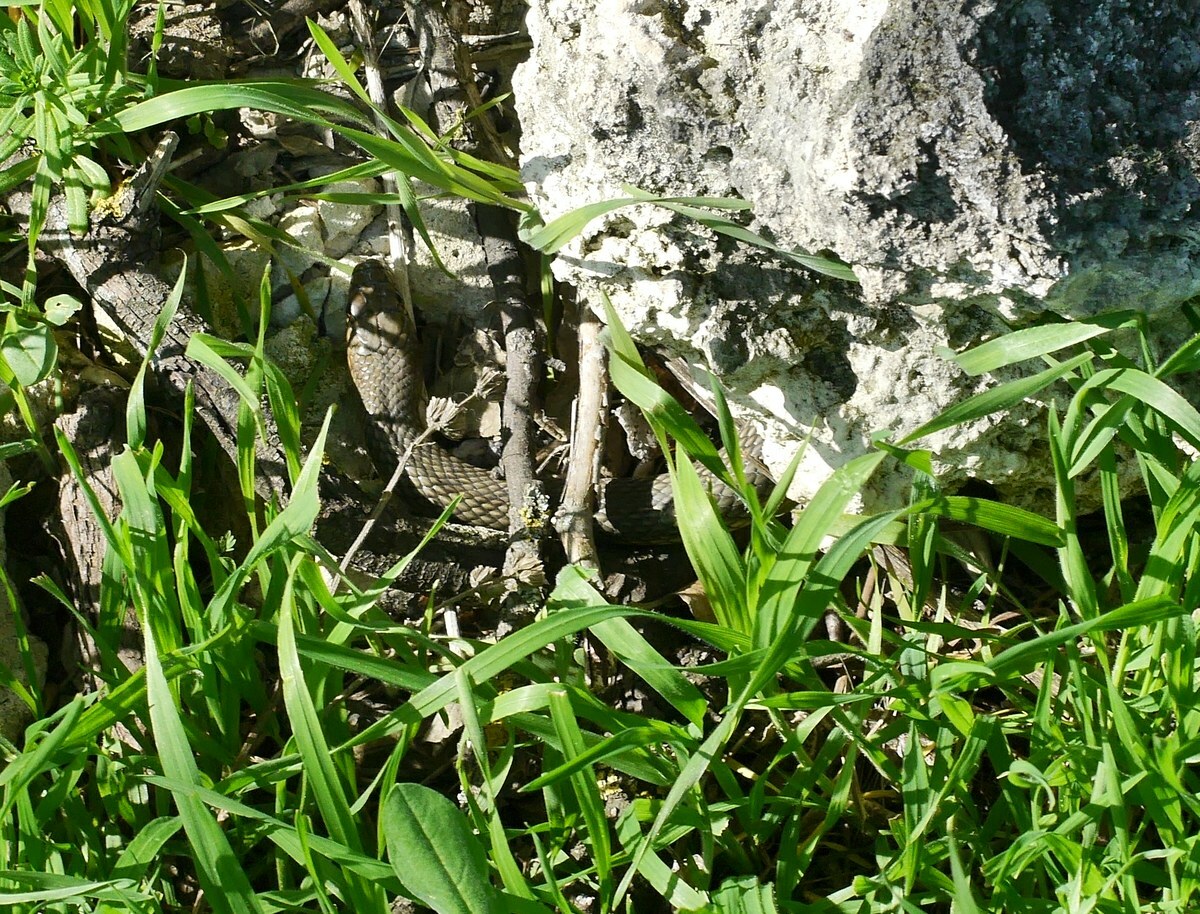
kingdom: Animalia
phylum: Chordata
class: Squamata
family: Colubridae
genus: Dolichophis
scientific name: Dolichophis caspius
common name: Large whip snake
